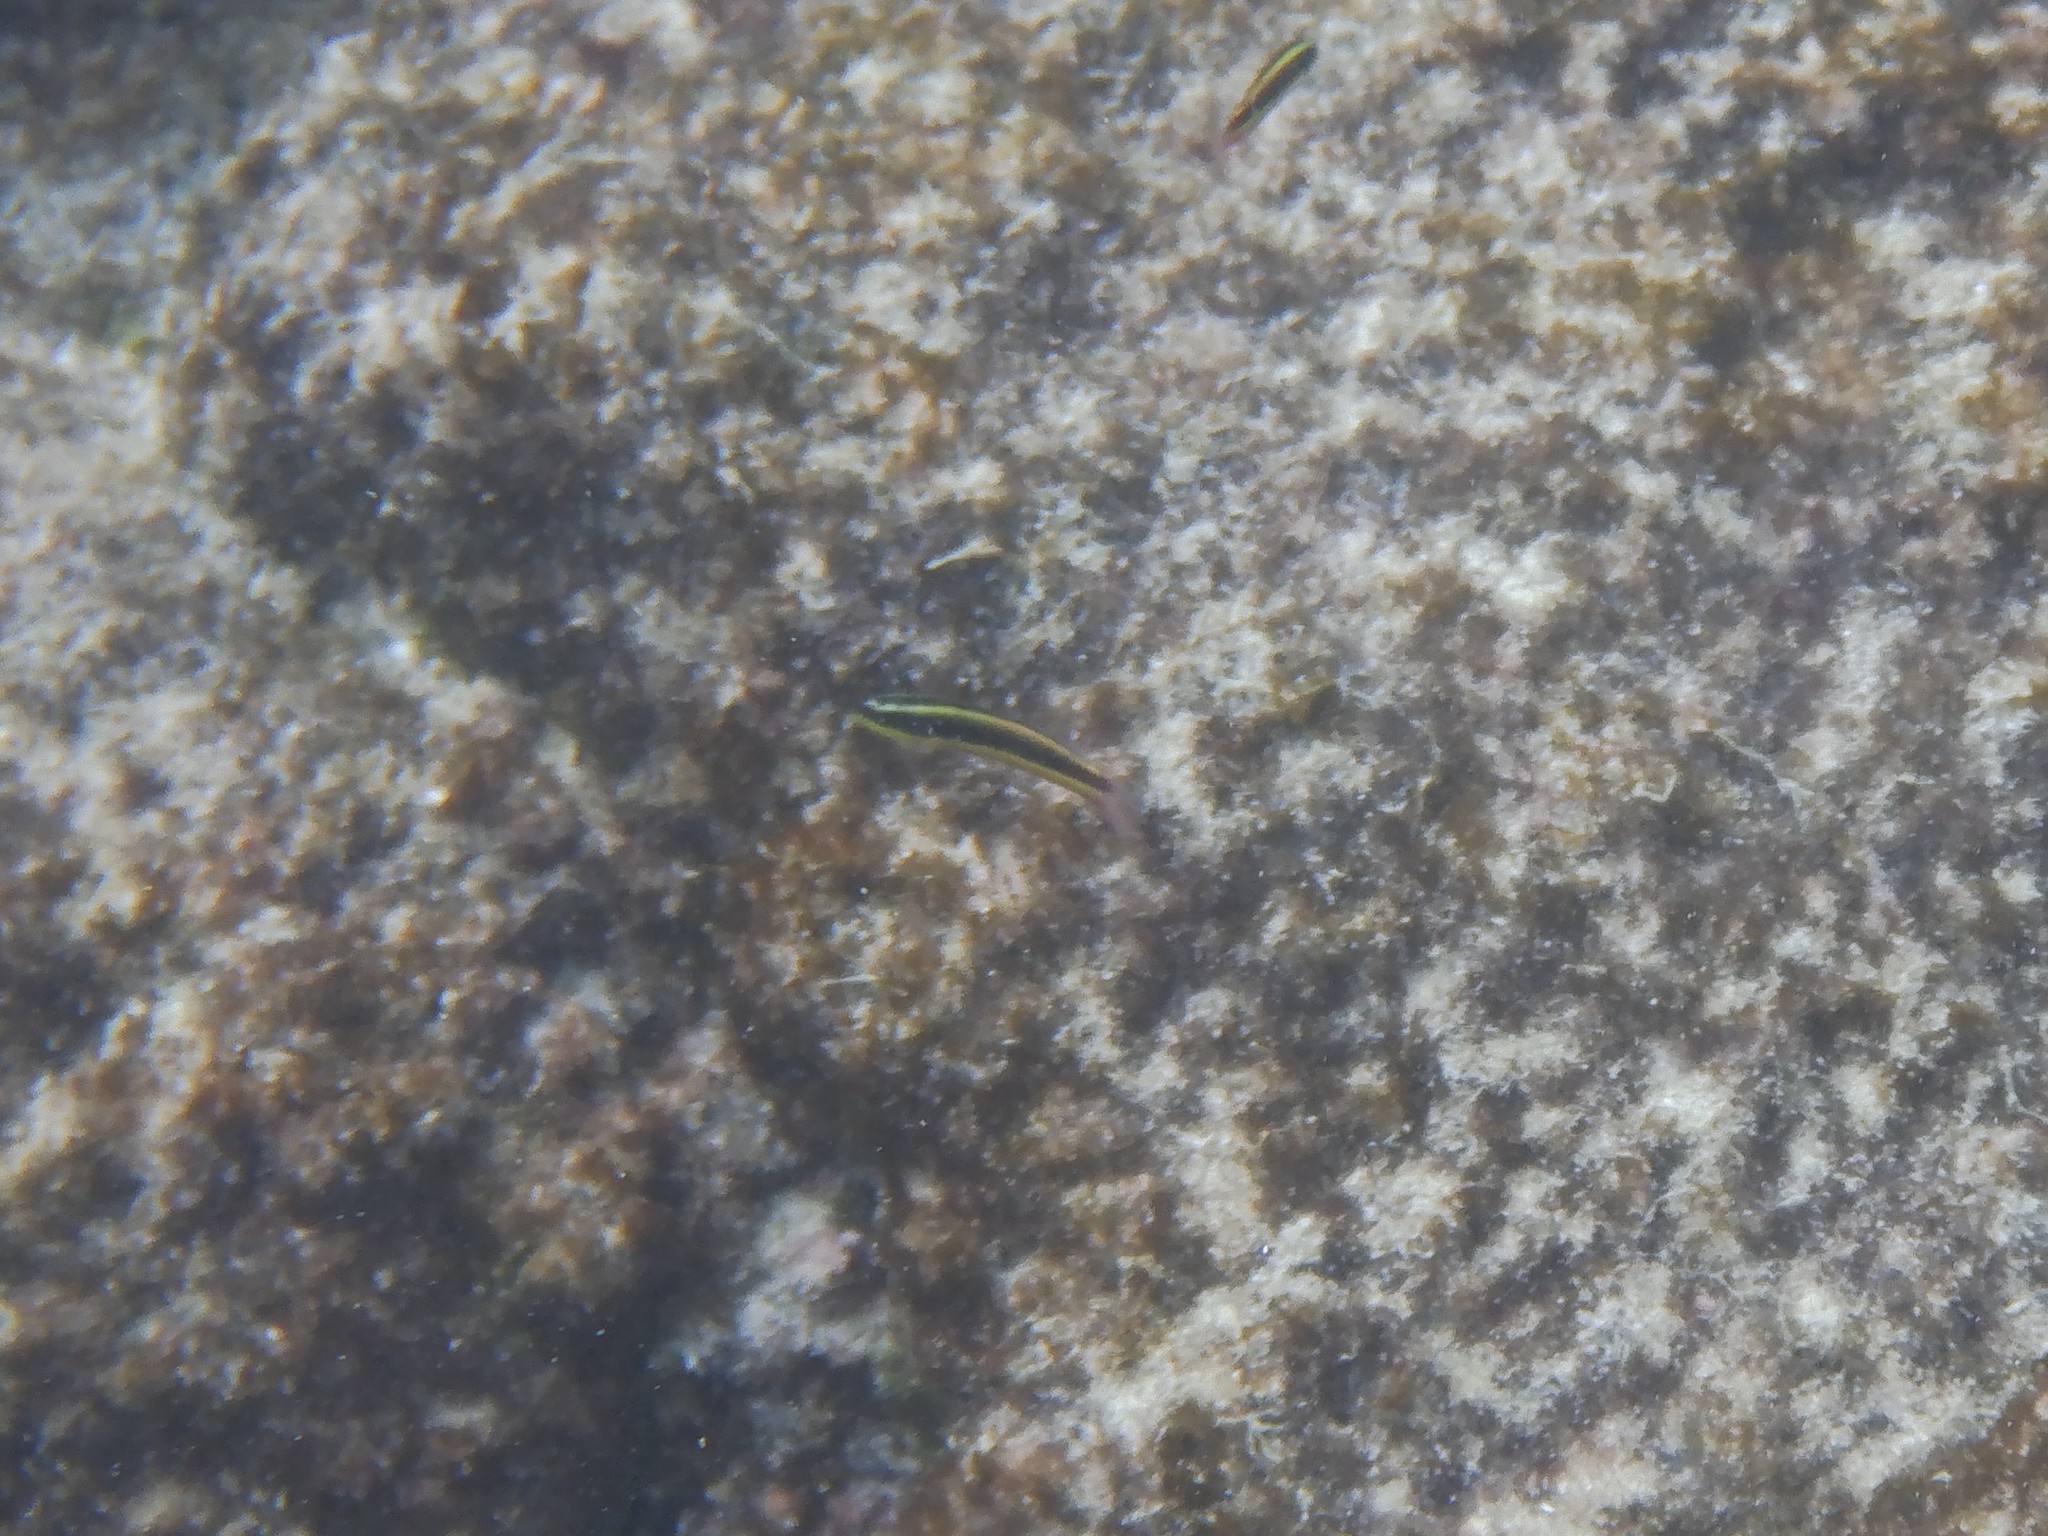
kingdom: Animalia
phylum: Chordata
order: Perciformes
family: Labridae
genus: Thalassoma
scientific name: Thalassoma lucasanum
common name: Cortez rainbow wrasse
